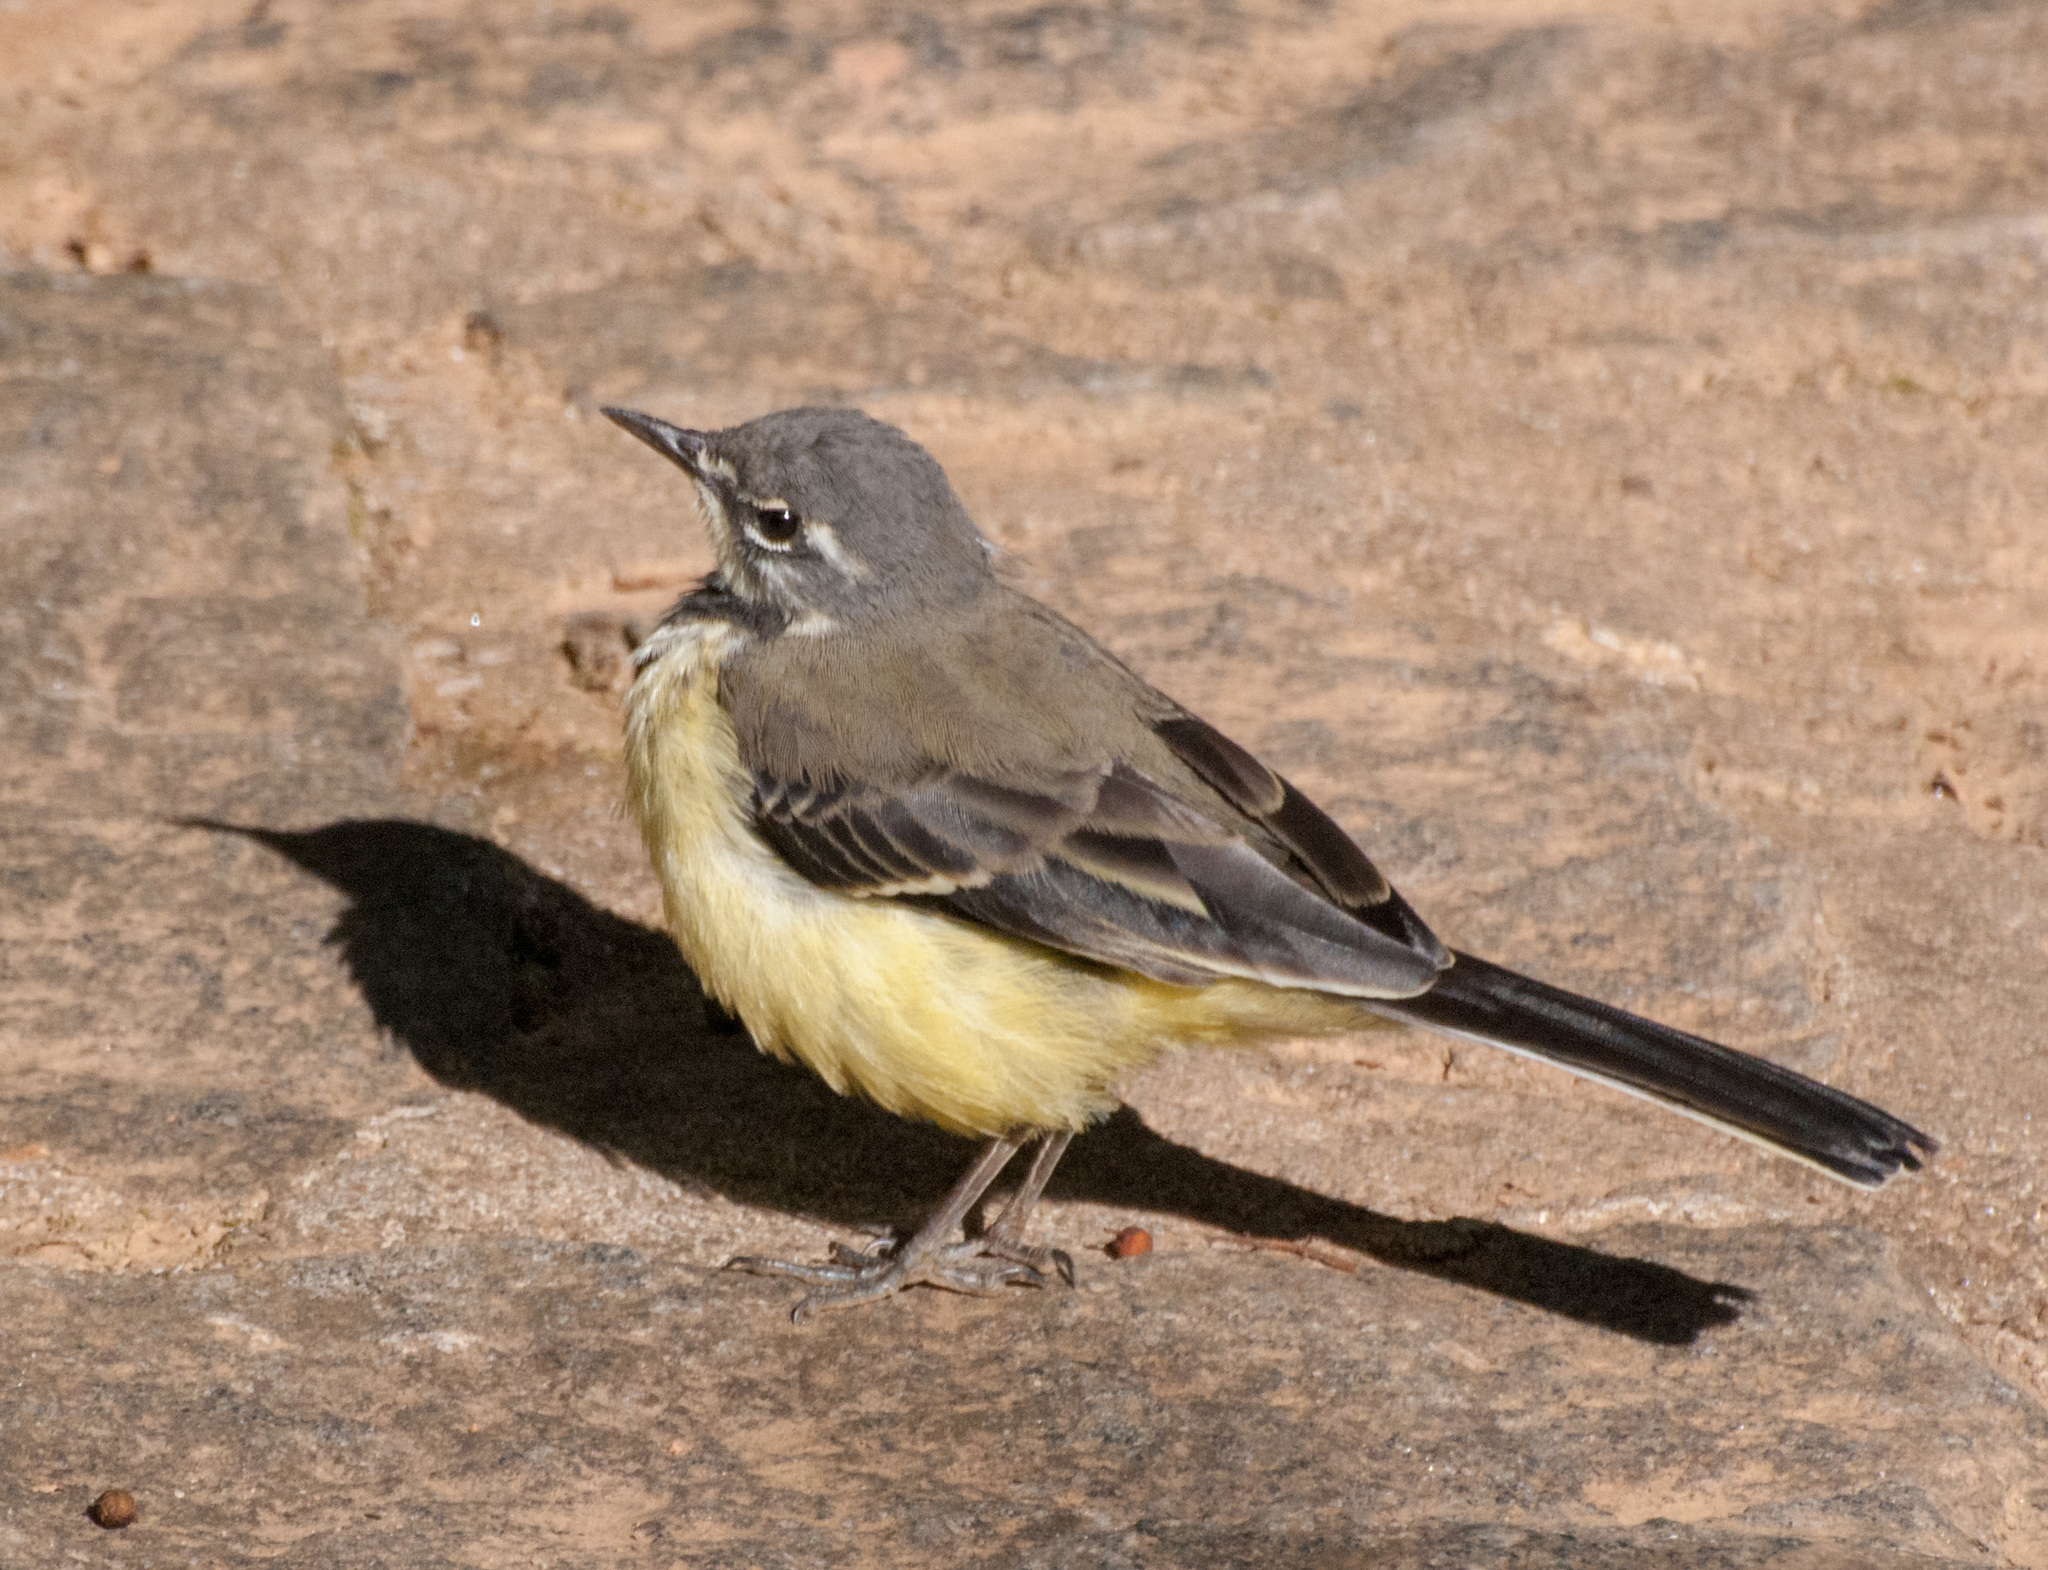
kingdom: Animalia
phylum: Chordata
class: Aves
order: Passeriformes
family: Motacillidae
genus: Motacilla
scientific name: Motacilla flaviventris
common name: Madagascar wagtail
